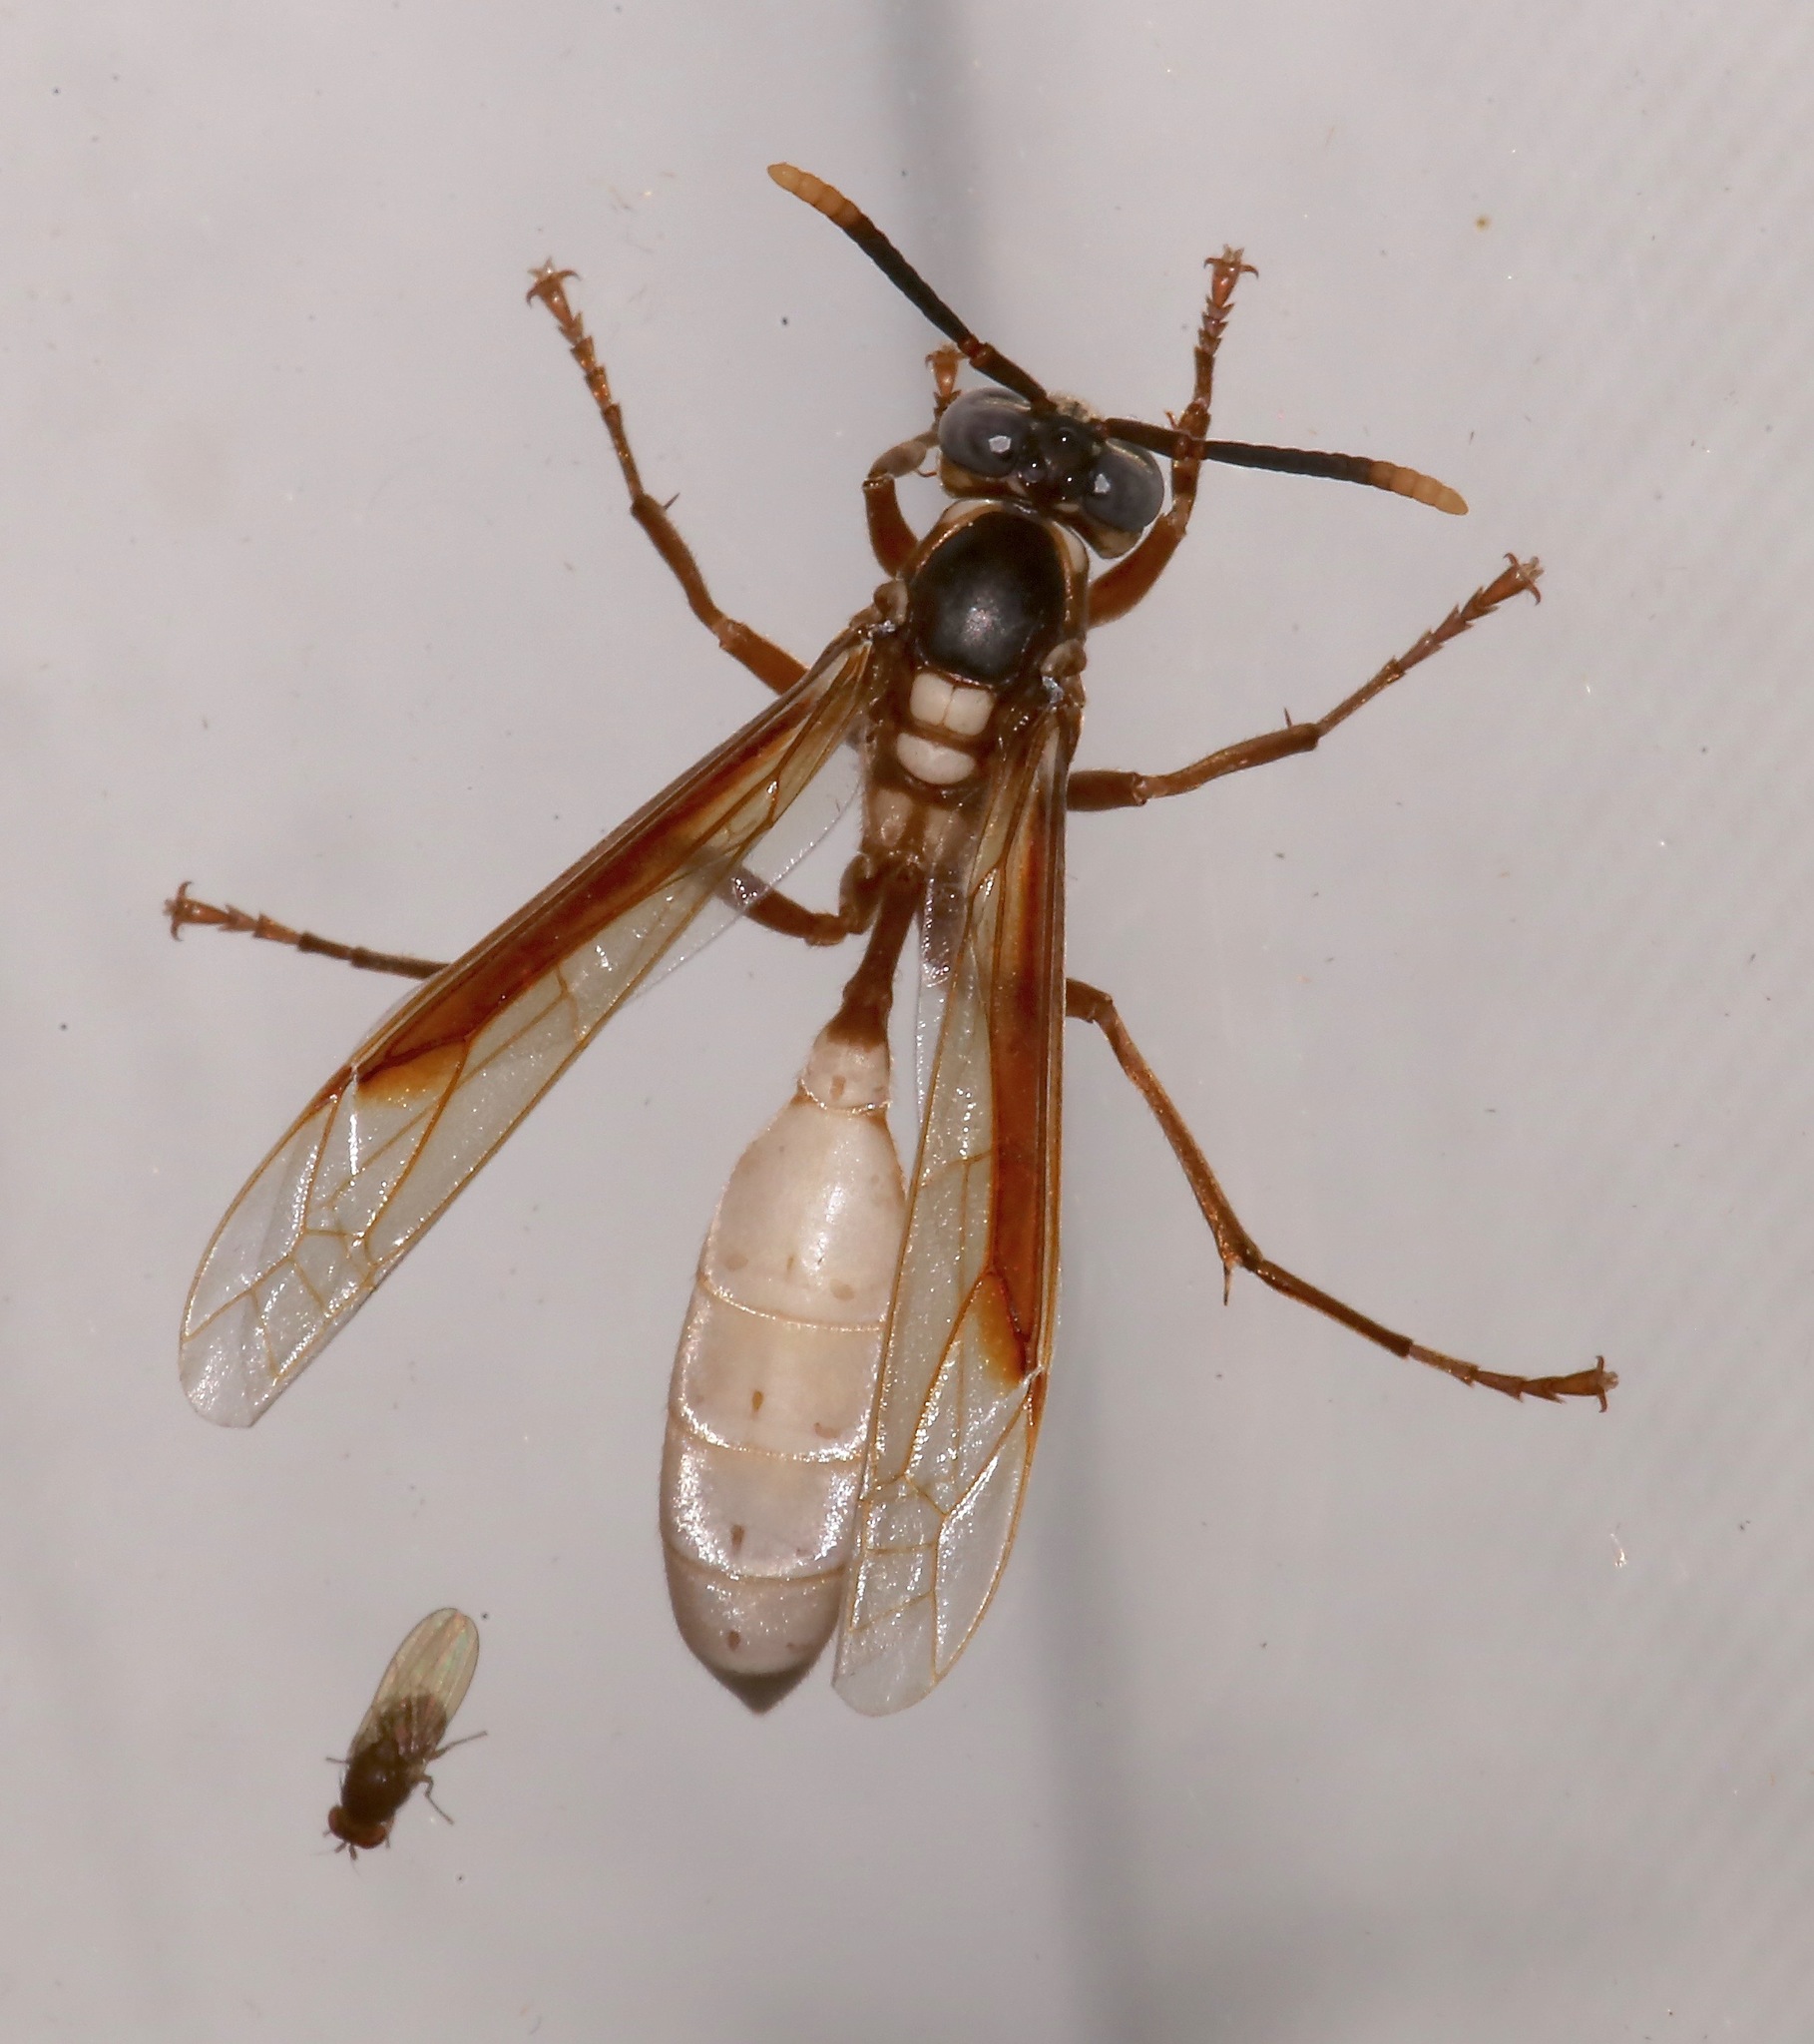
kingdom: Animalia
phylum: Arthropoda
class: Insecta
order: Hymenoptera
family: Vespidae
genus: Apoica
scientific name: Apoica pallens
